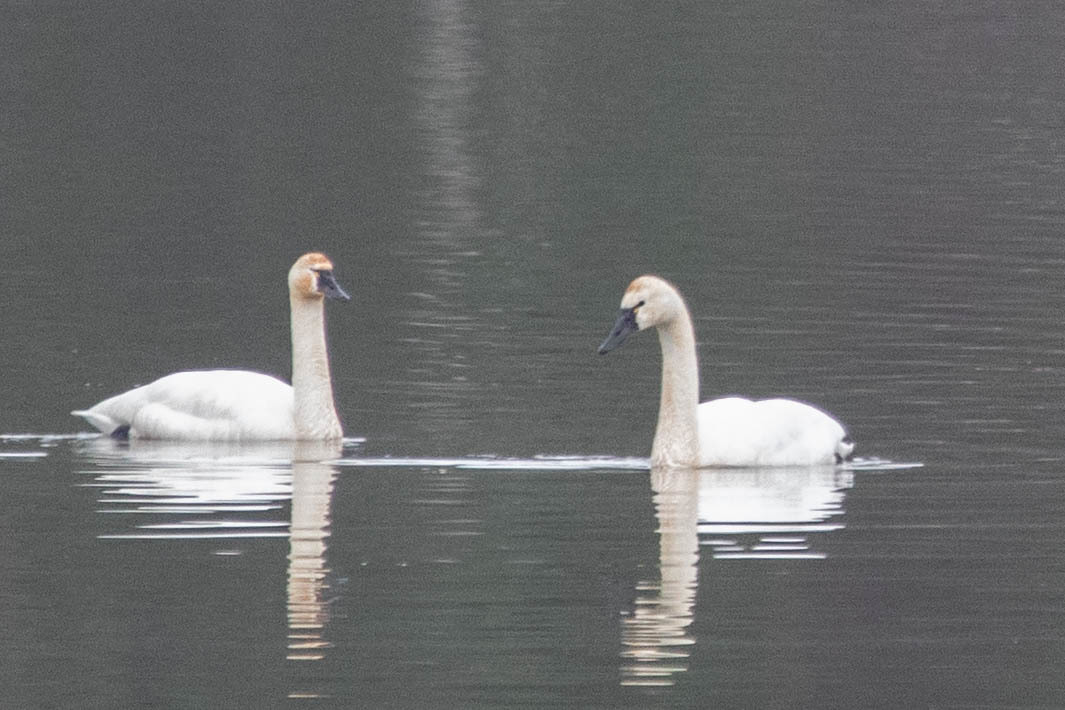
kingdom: Animalia
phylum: Chordata
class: Aves
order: Anseriformes
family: Anatidae
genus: Cygnus
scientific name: Cygnus columbianus
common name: Tundra swan
